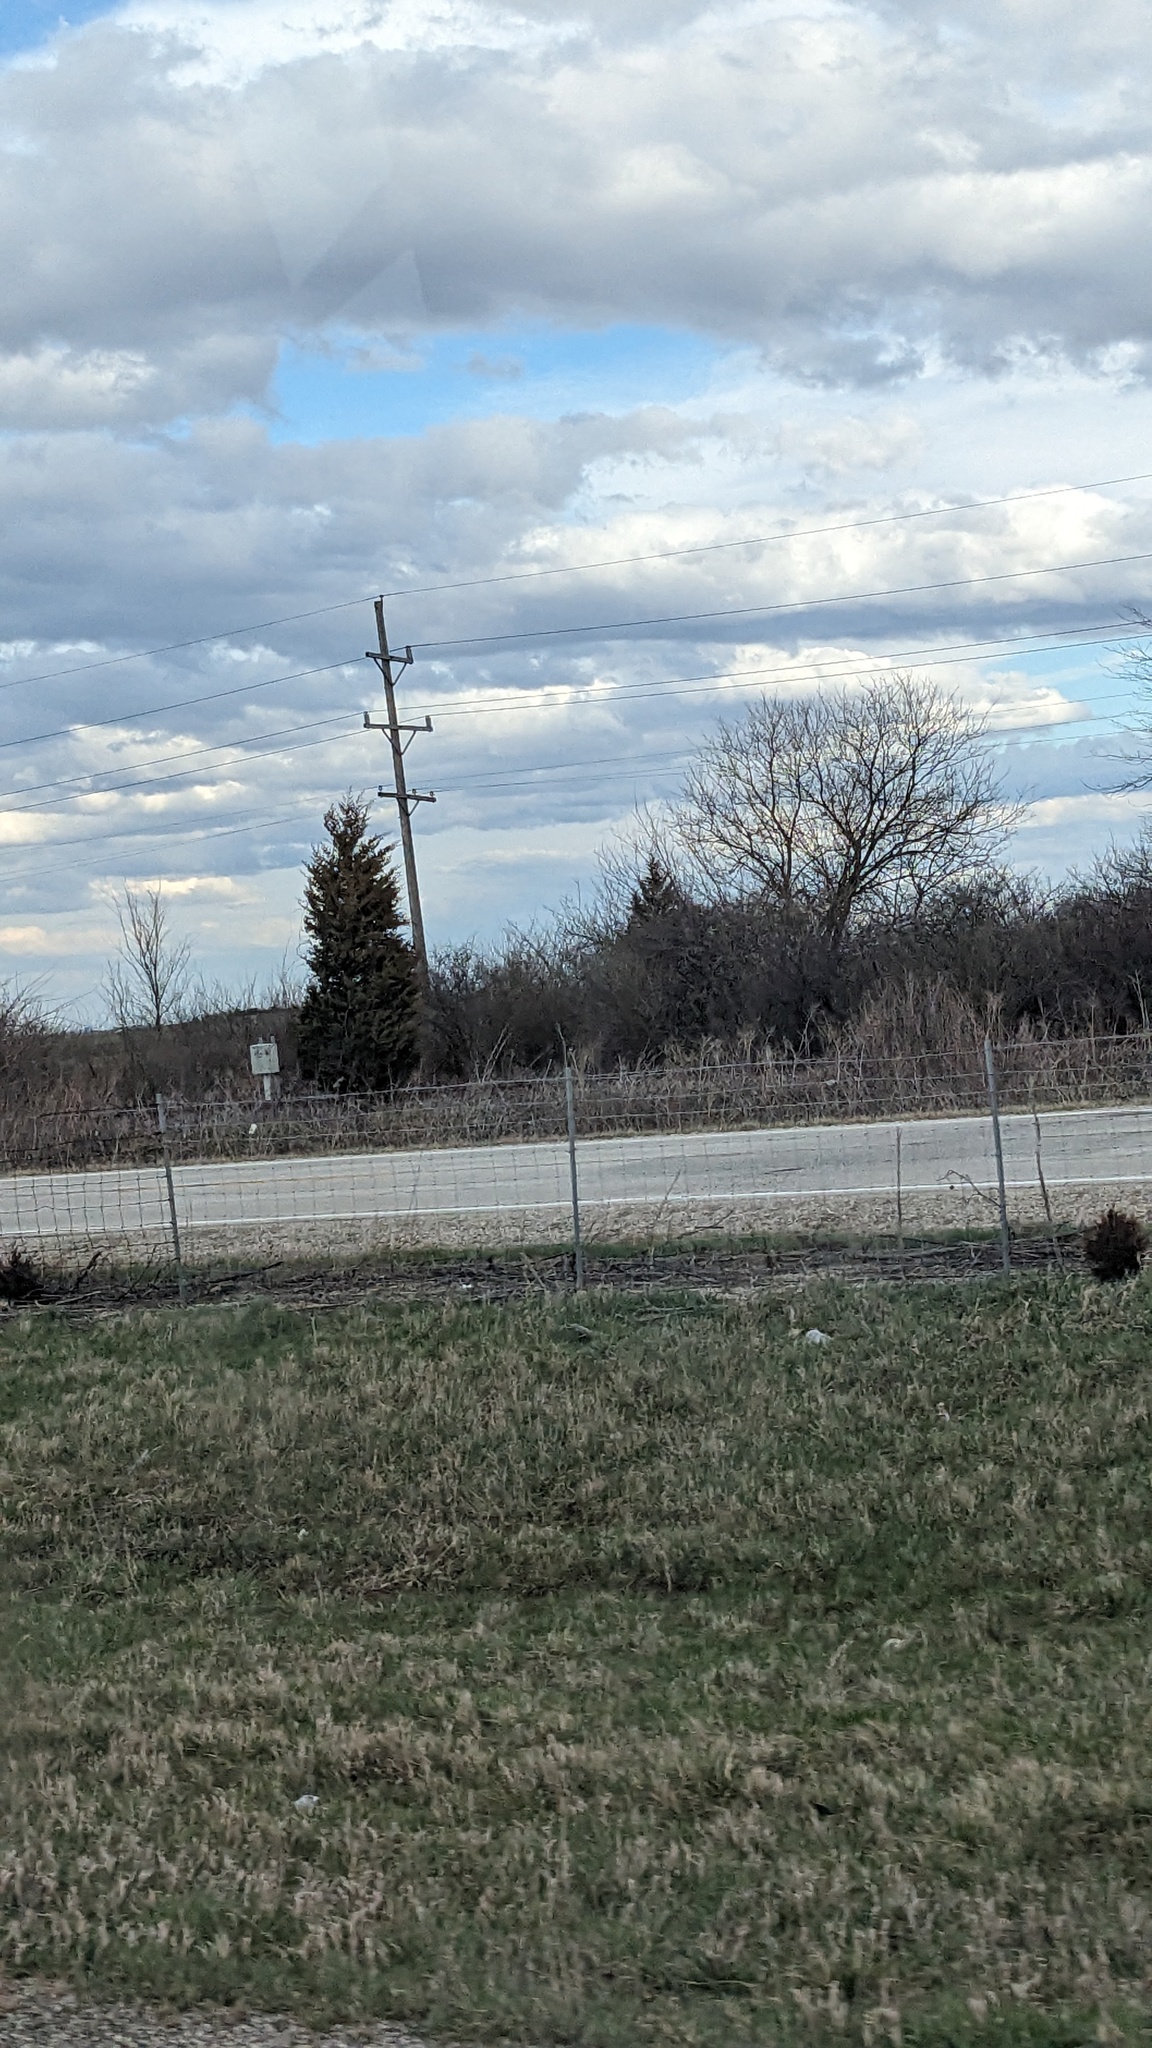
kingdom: Plantae
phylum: Tracheophyta
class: Pinopsida
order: Pinales
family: Cupressaceae
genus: Juniperus
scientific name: Juniperus virginiana
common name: Red juniper
